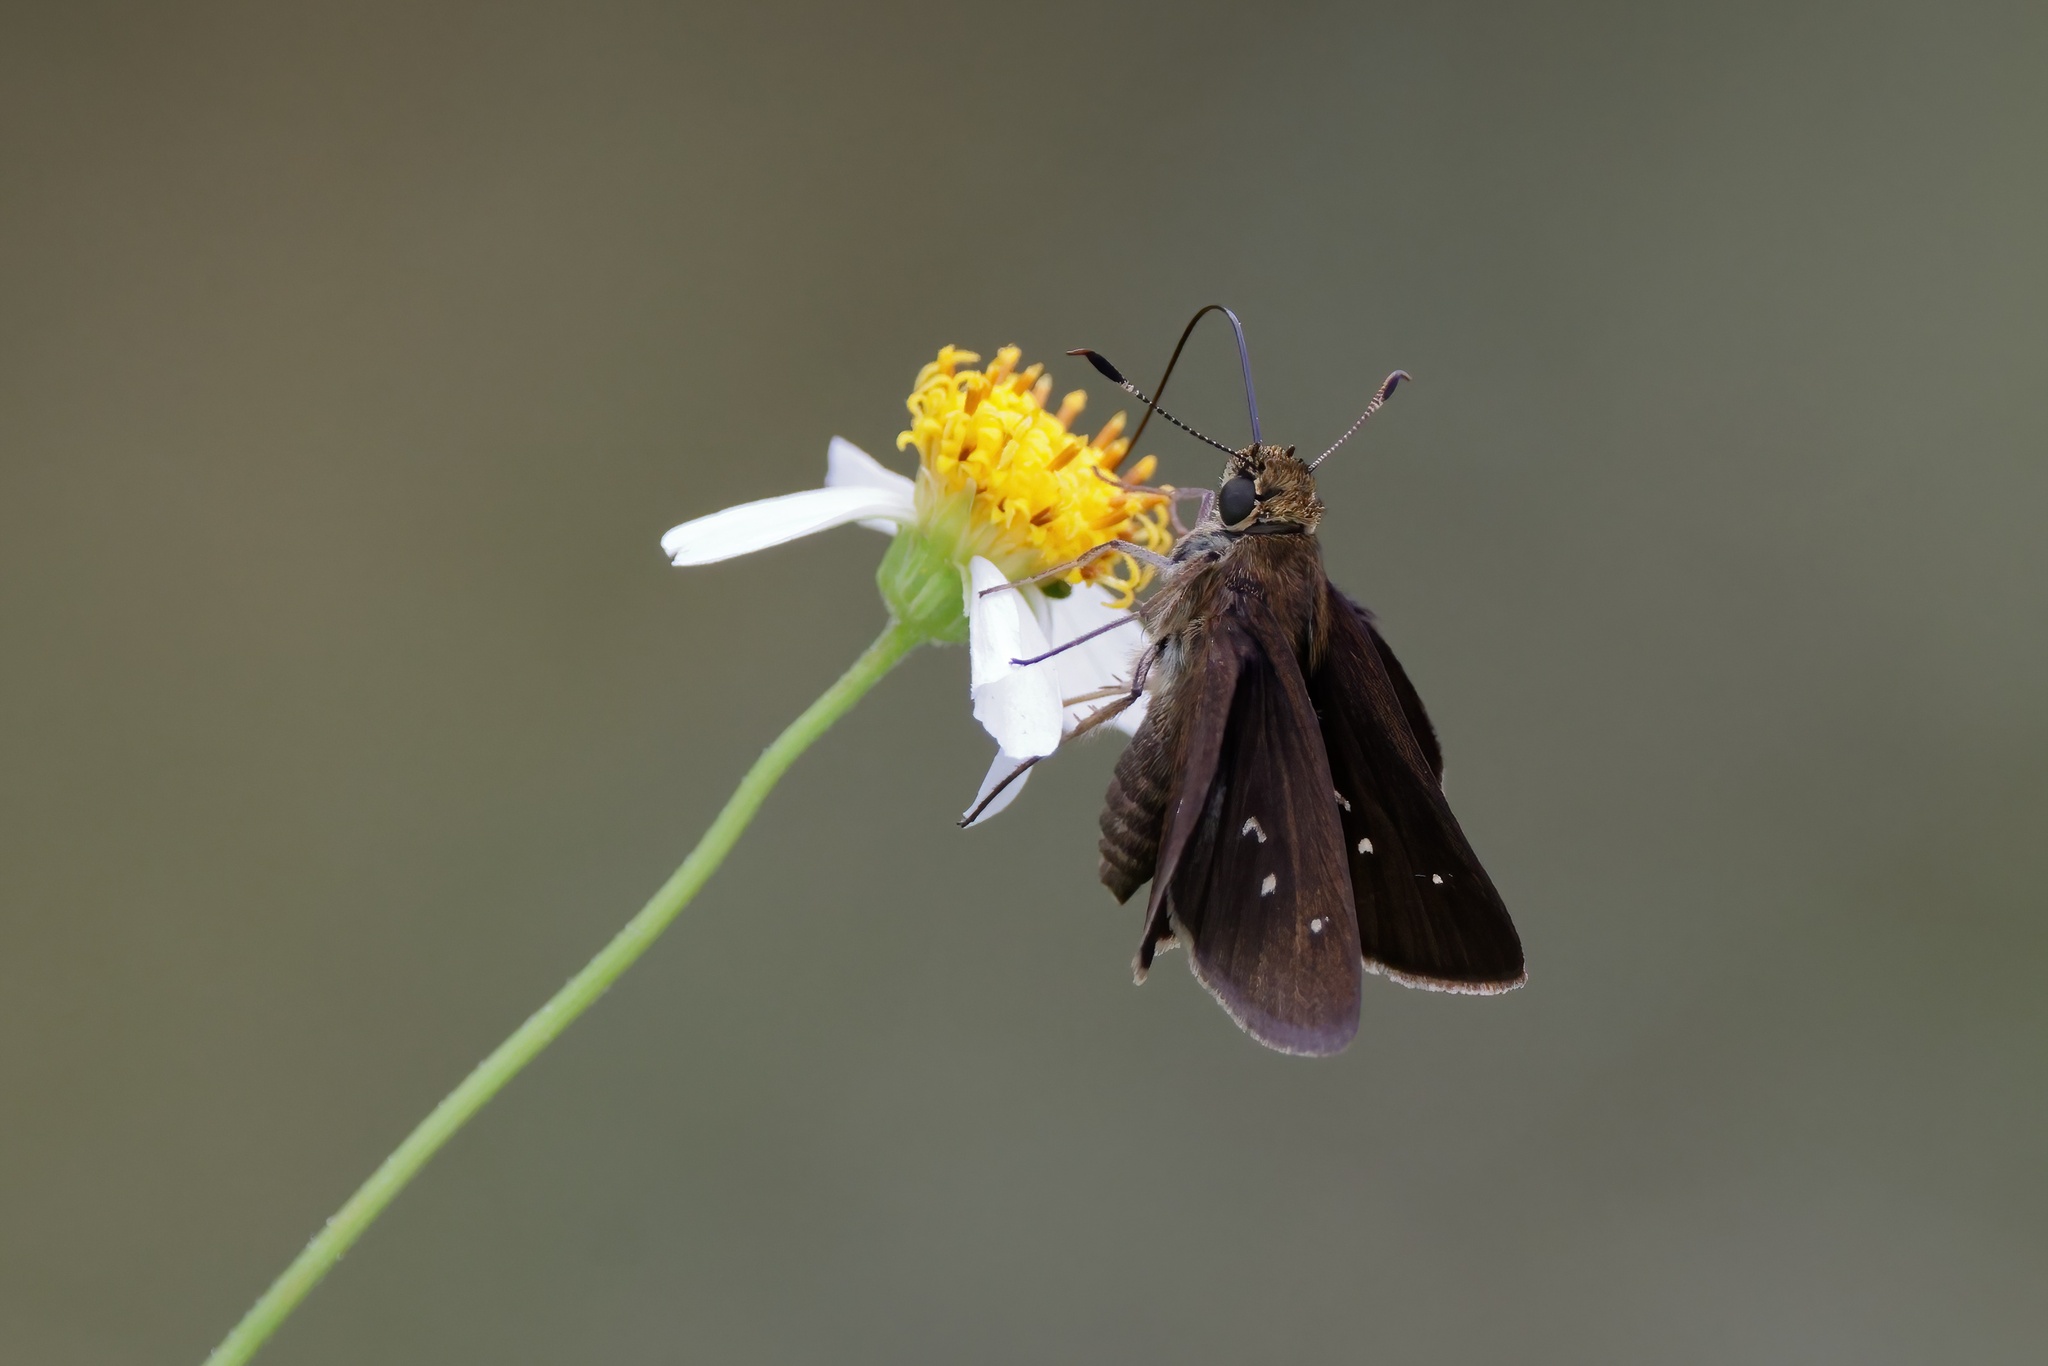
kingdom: Animalia
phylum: Arthropoda
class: Insecta
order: Lepidoptera
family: Hesperiidae
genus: Oligoria
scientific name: Oligoria maculata
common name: Twin-spot skipper
